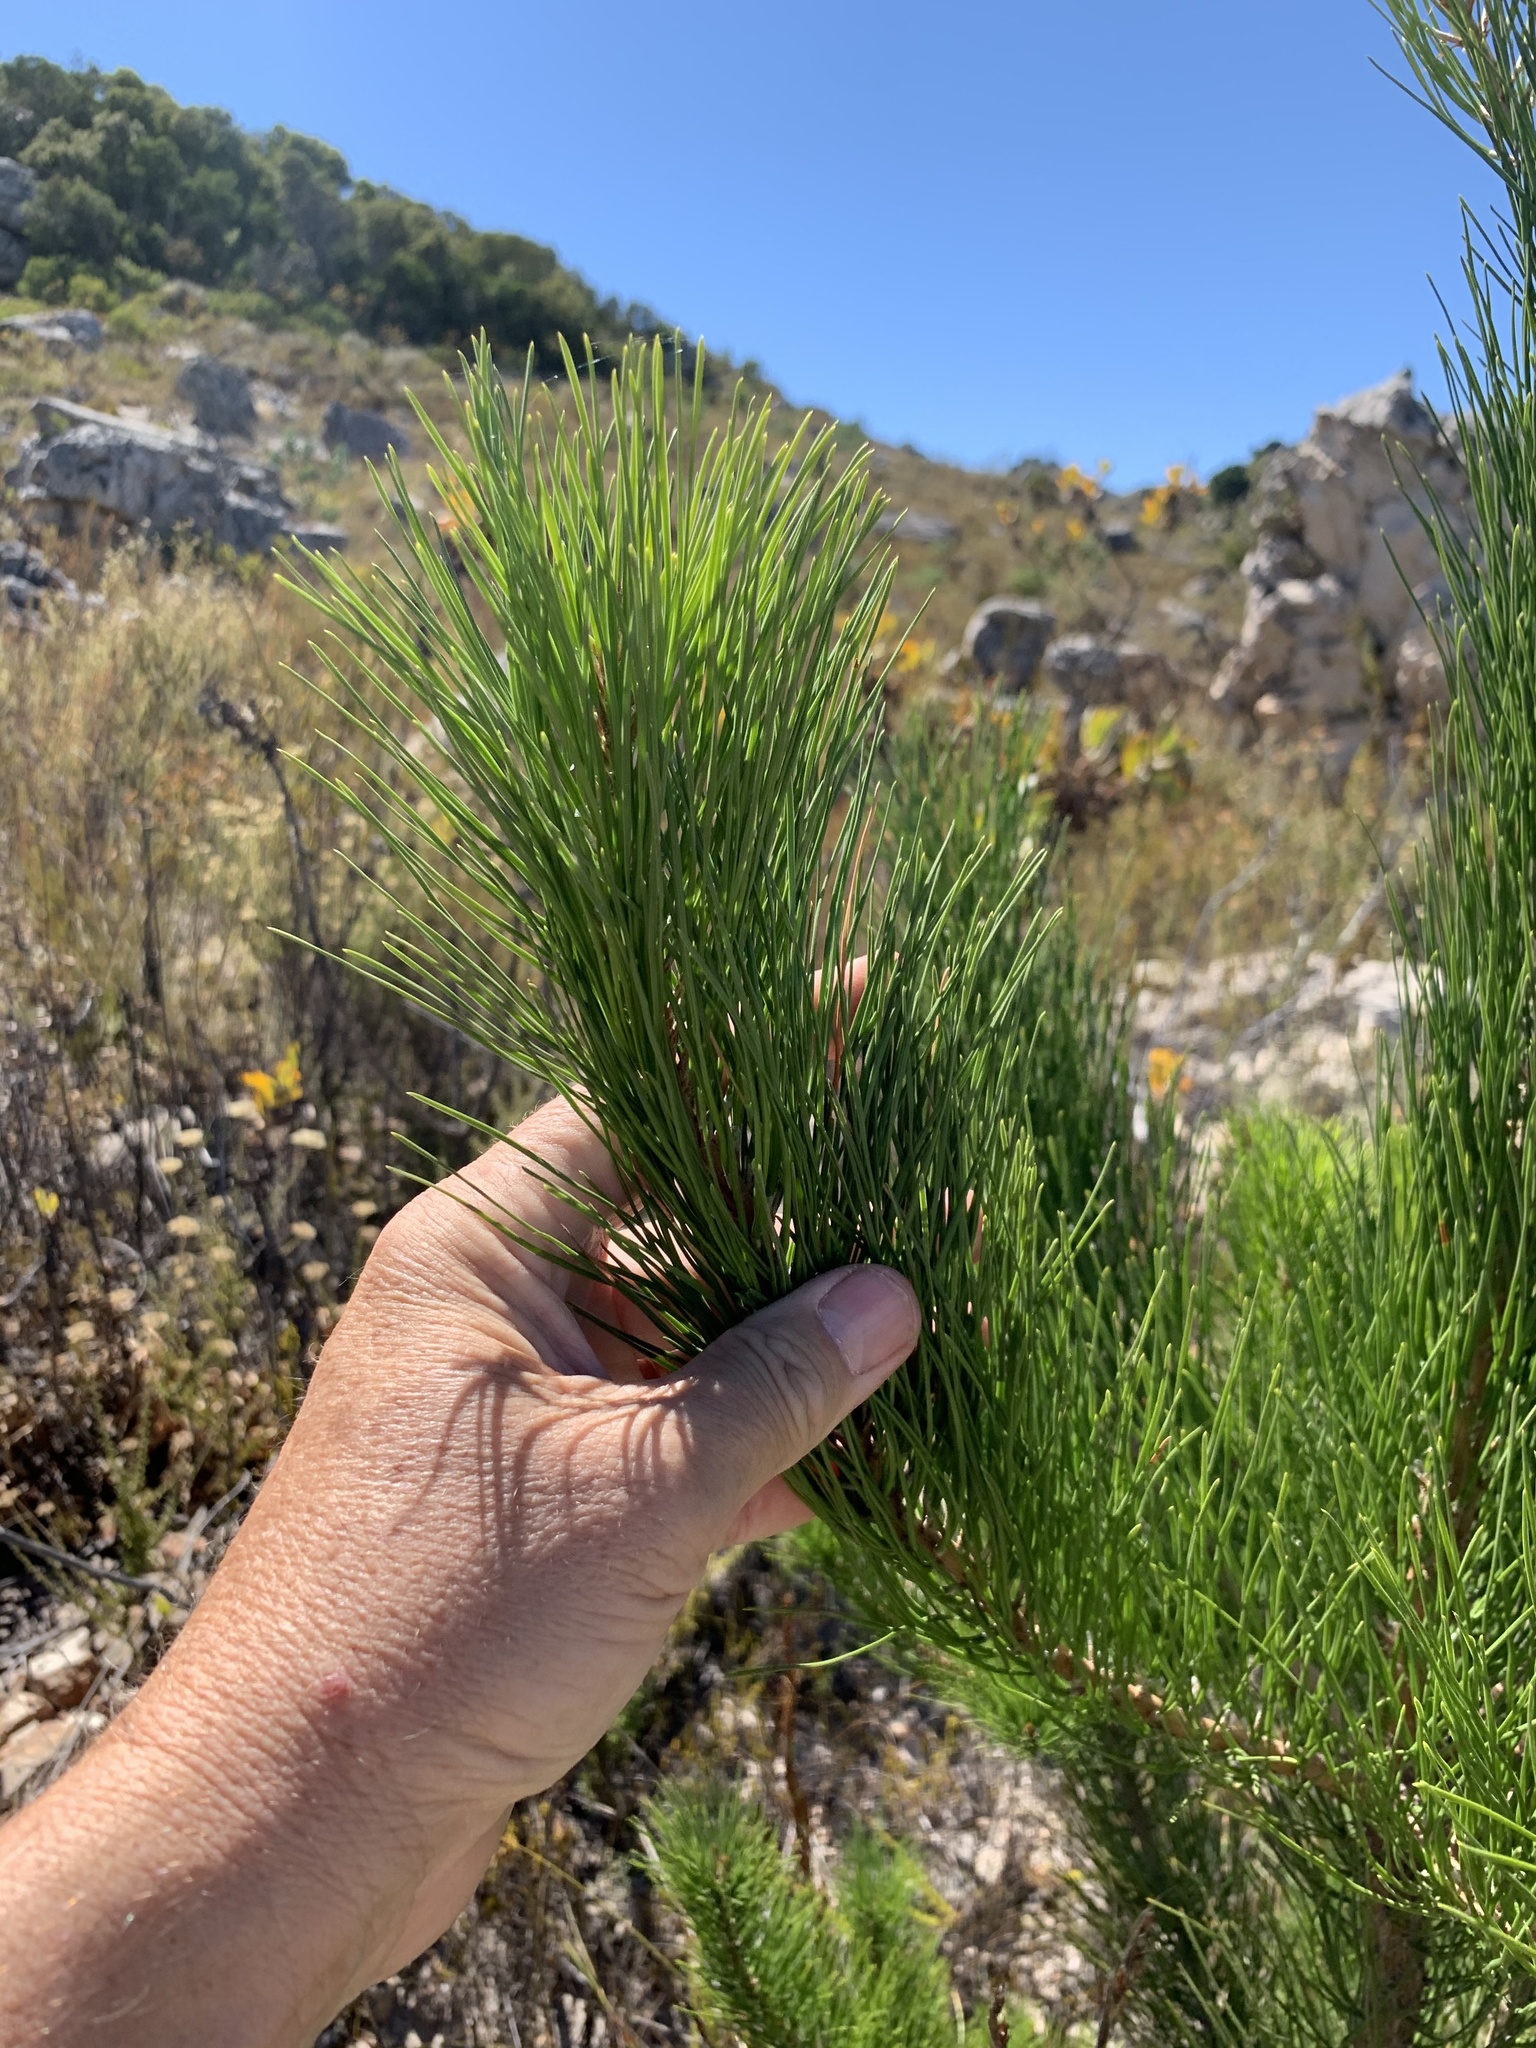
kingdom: Plantae
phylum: Tracheophyta
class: Pinopsida
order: Pinales
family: Pinaceae
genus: Pinus
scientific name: Pinus radiata
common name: Monterey pine
